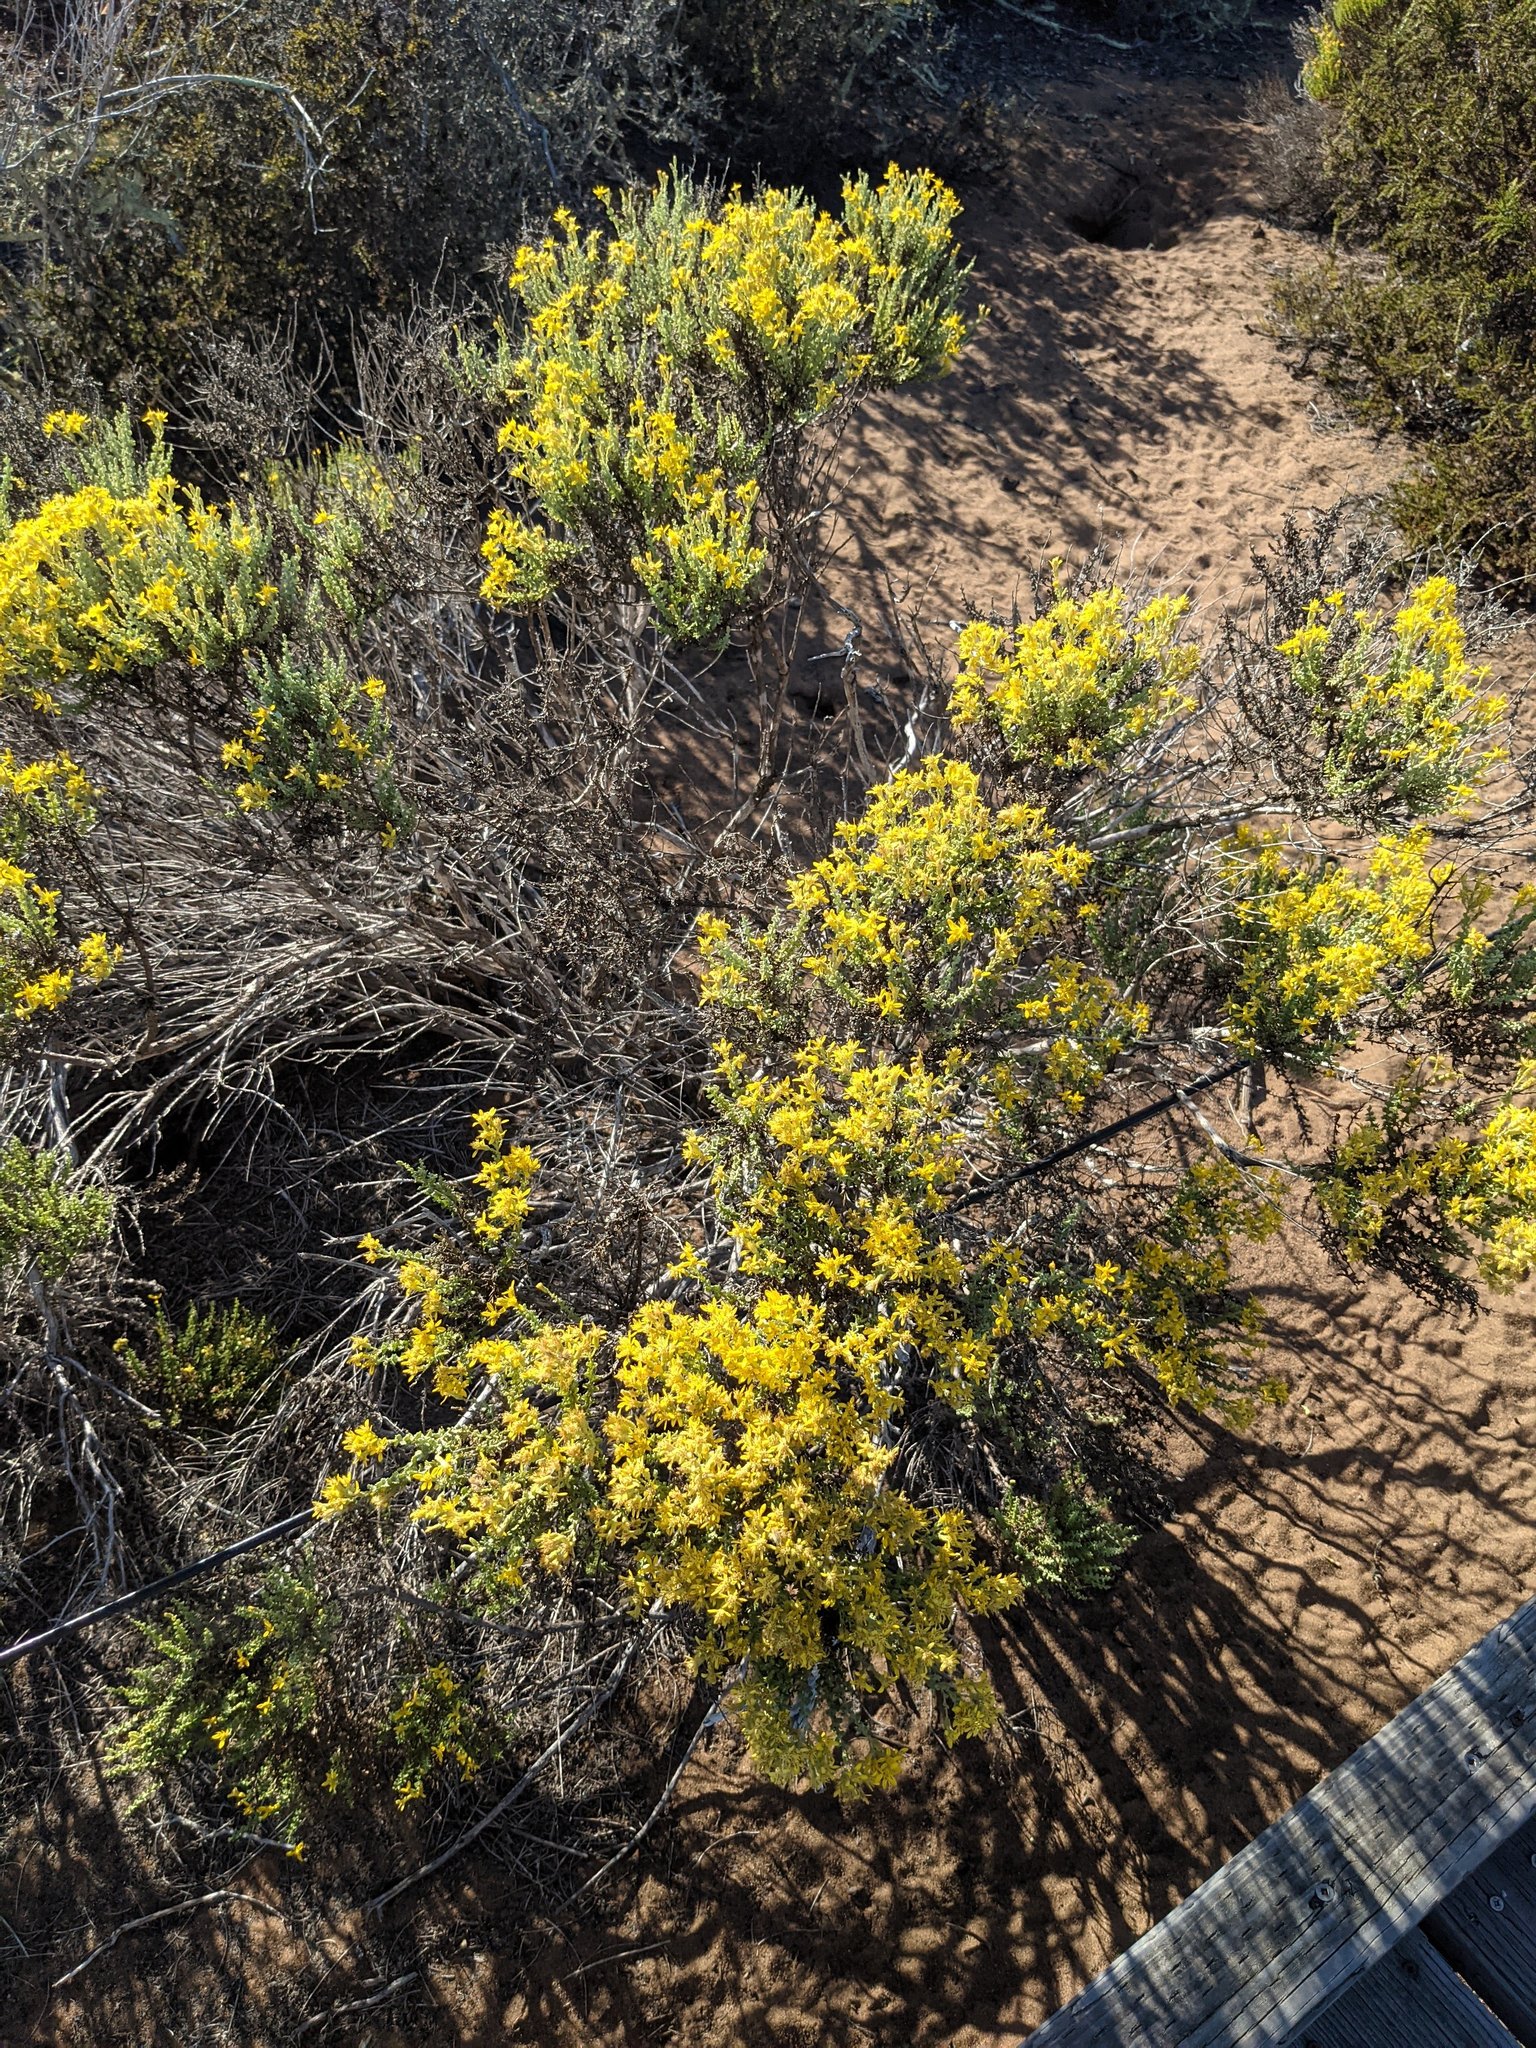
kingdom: Plantae
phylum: Tracheophyta
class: Magnoliopsida
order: Asterales
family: Asteraceae
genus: Ericameria
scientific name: Ericameria ericoides
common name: California goldenbush
